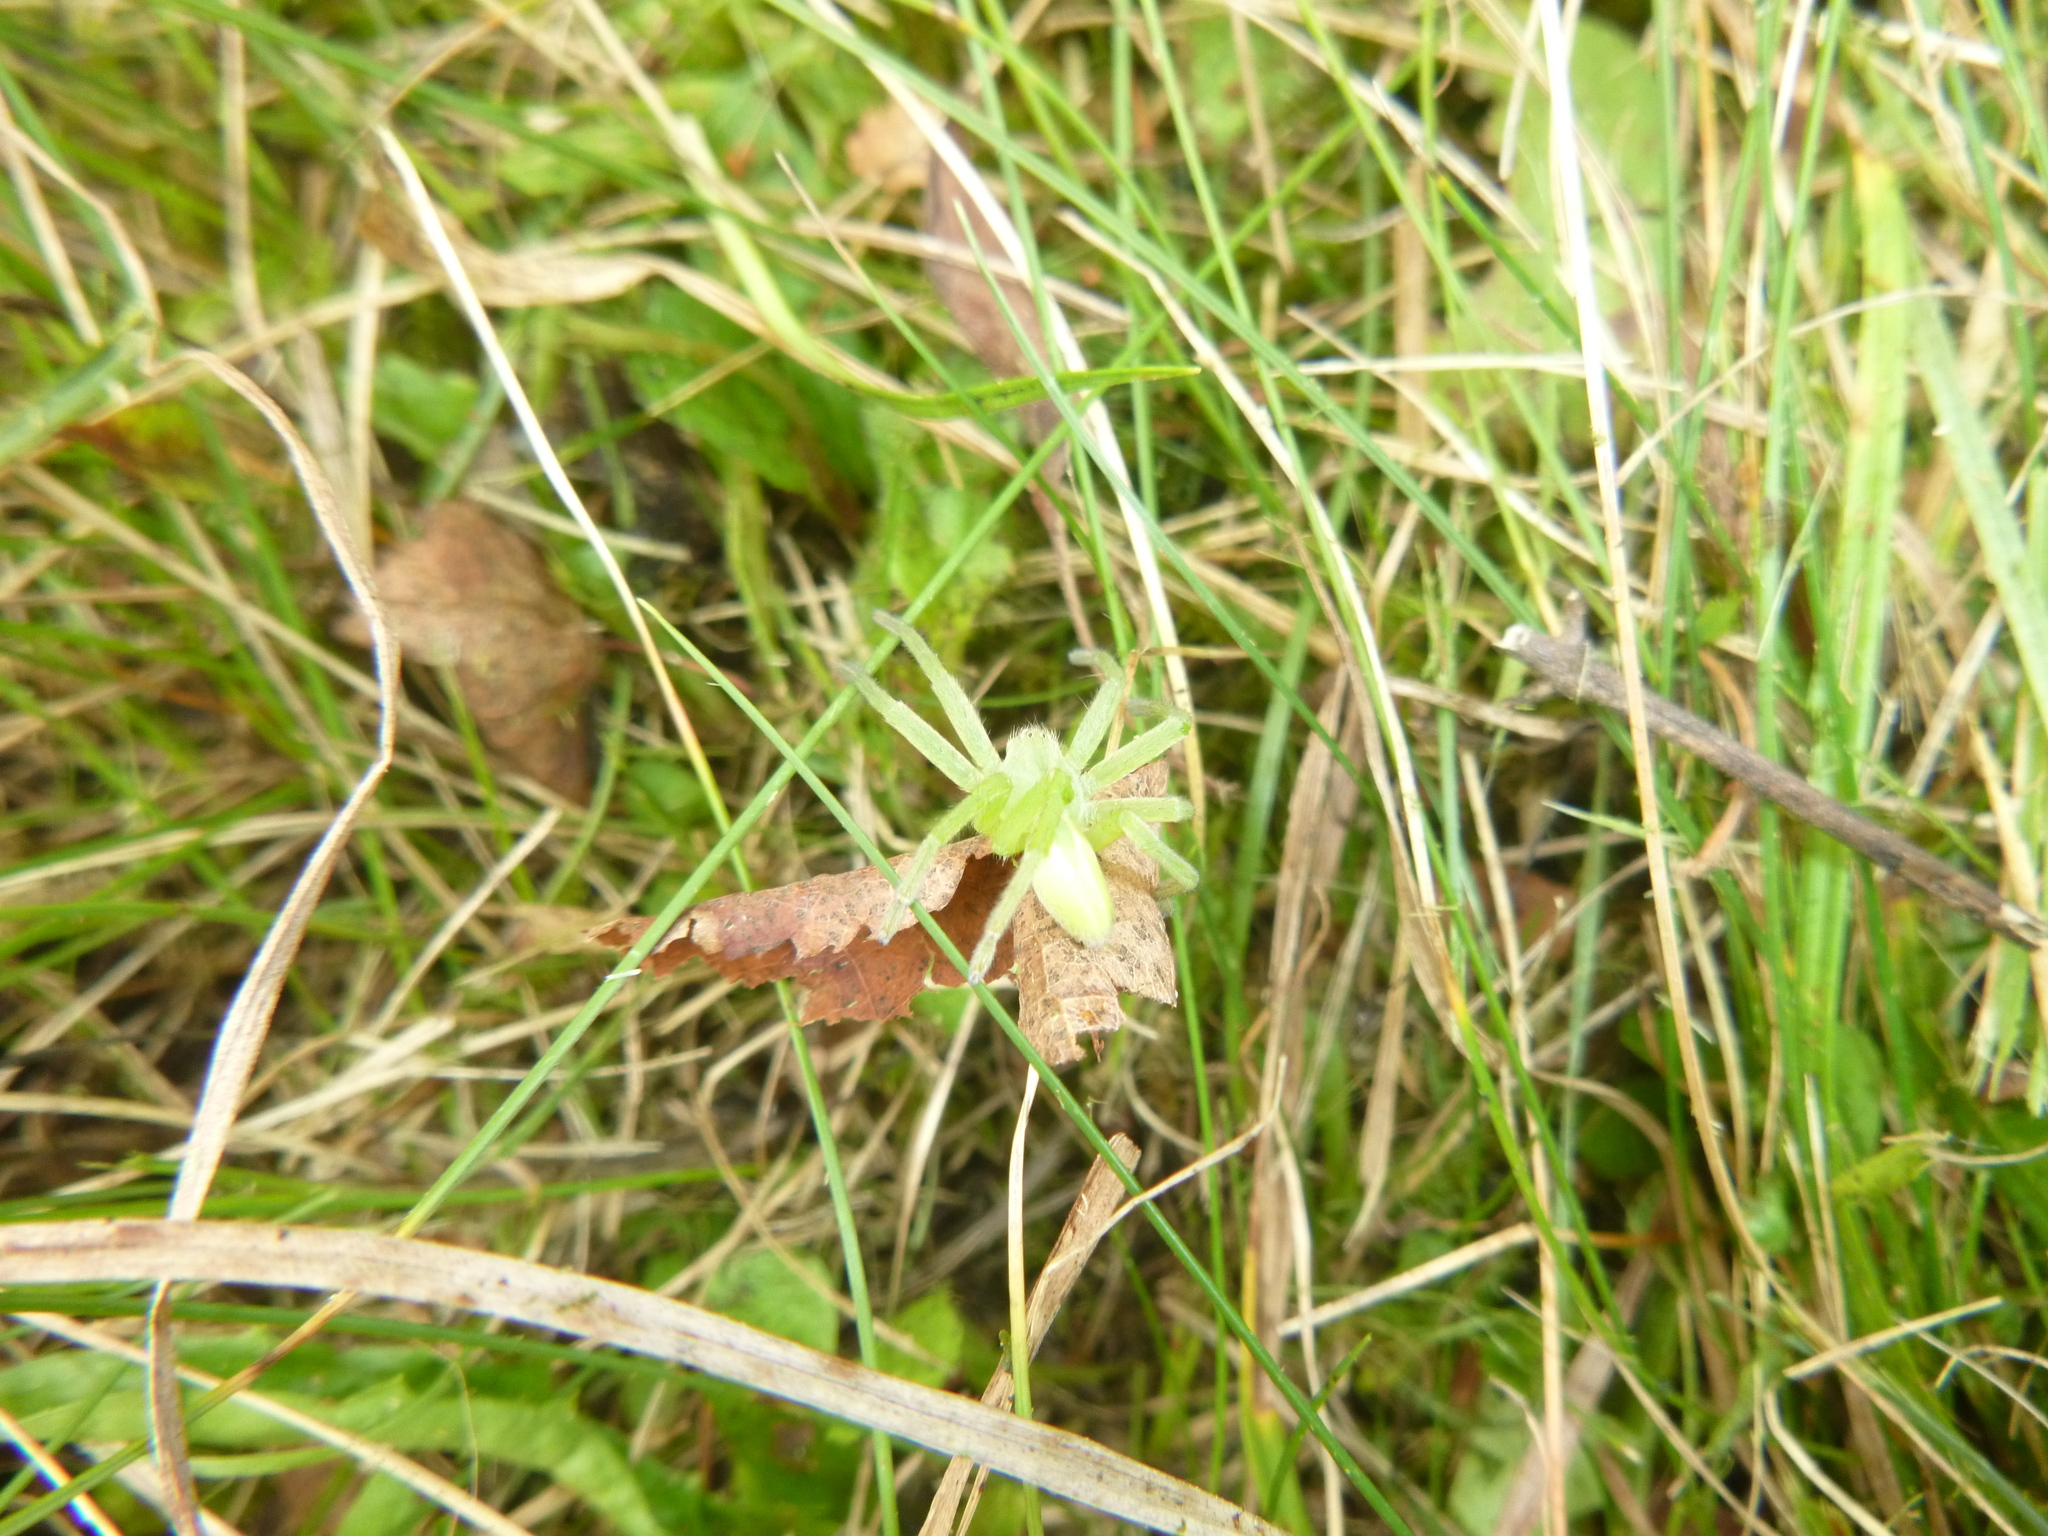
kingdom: Animalia
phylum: Arthropoda
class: Arachnida
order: Araneae
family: Sparassidae
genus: Micrommata
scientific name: Micrommata virescens
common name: Green spider
